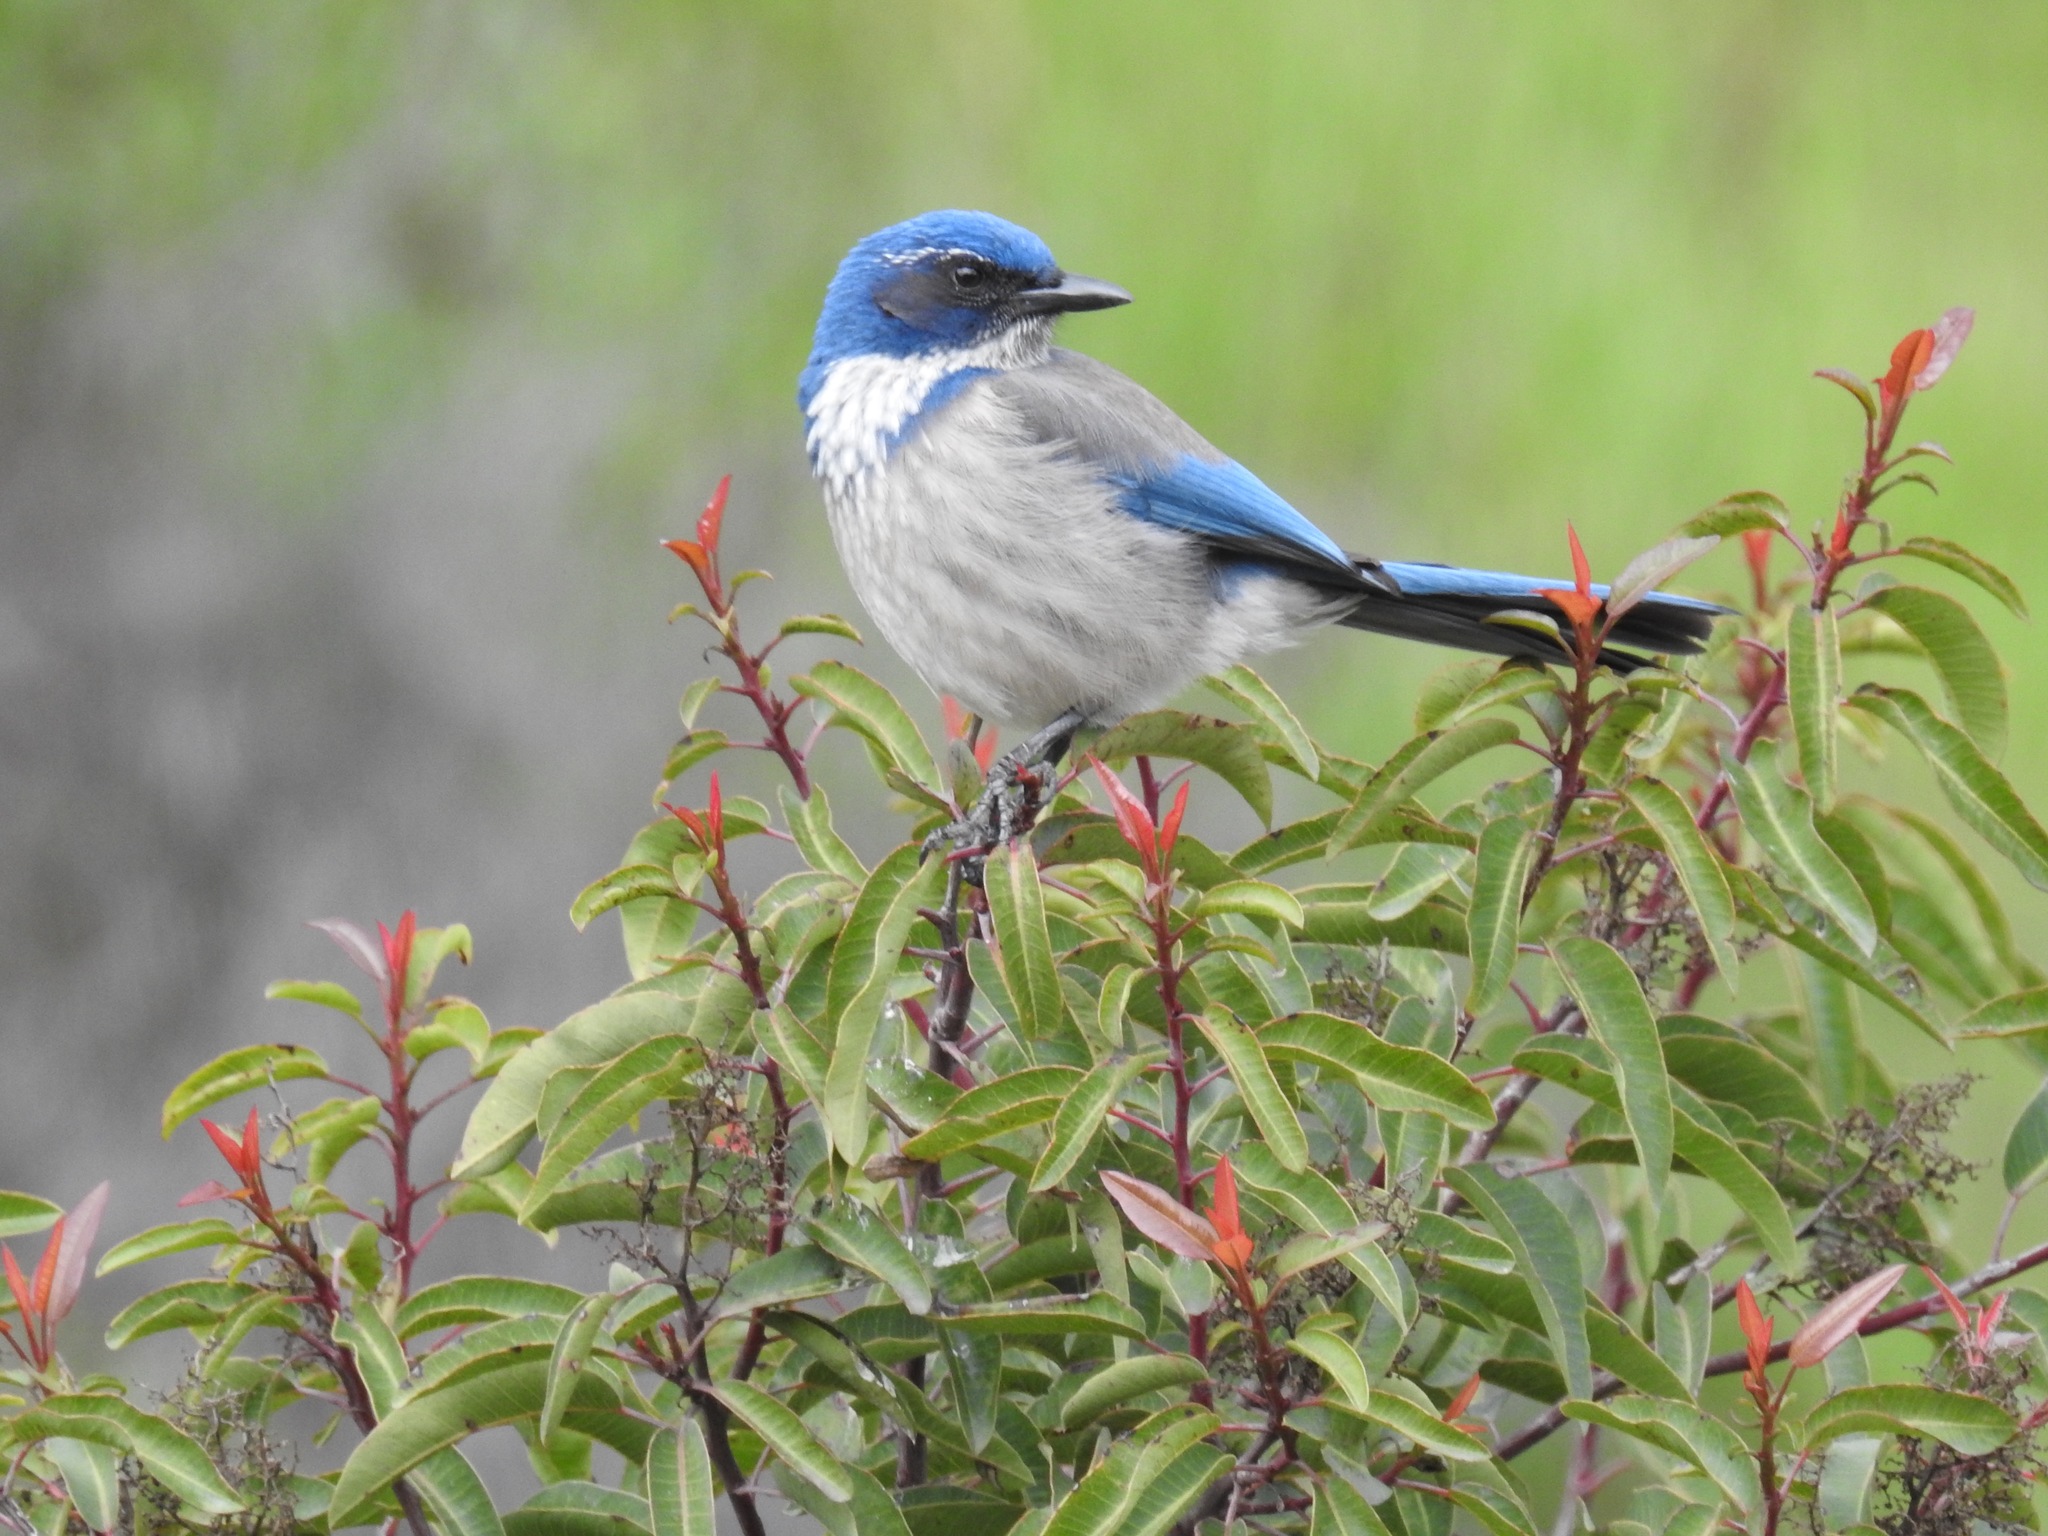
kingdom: Animalia
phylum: Chordata
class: Aves
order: Passeriformes
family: Corvidae
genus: Aphelocoma
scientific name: Aphelocoma californica
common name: California scrub-jay
